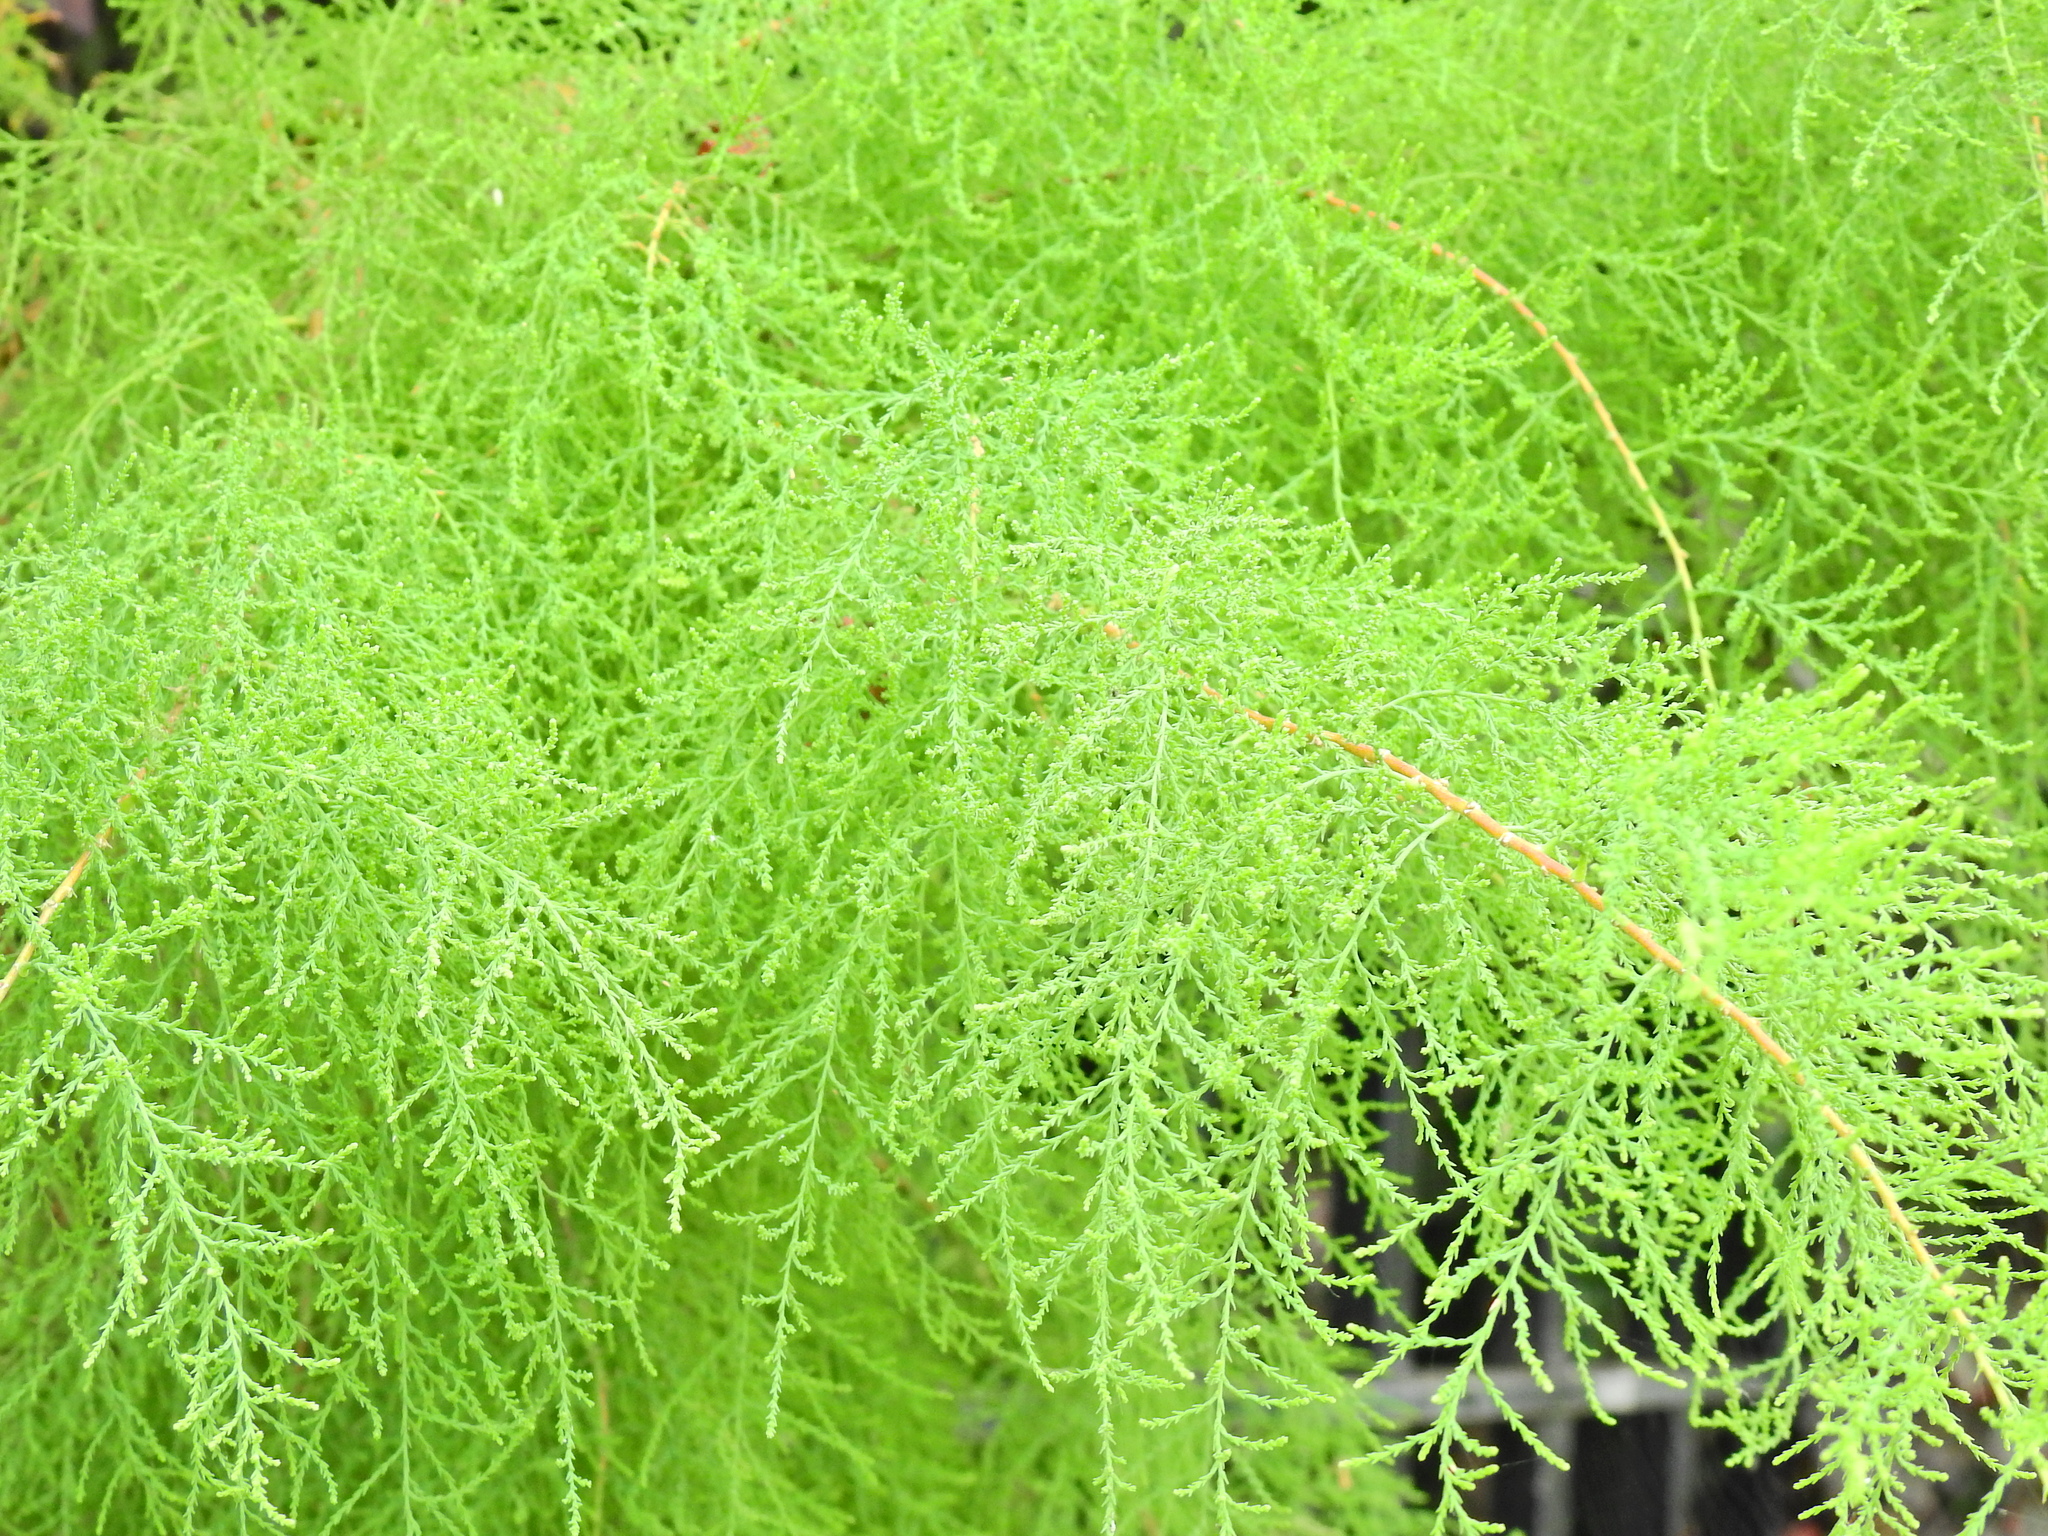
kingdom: Plantae
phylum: Tracheophyta
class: Magnoliopsida
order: Caryophyllales
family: Tamaricaceae
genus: Tamarix
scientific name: Tamarix gallica
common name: Tamarisk
